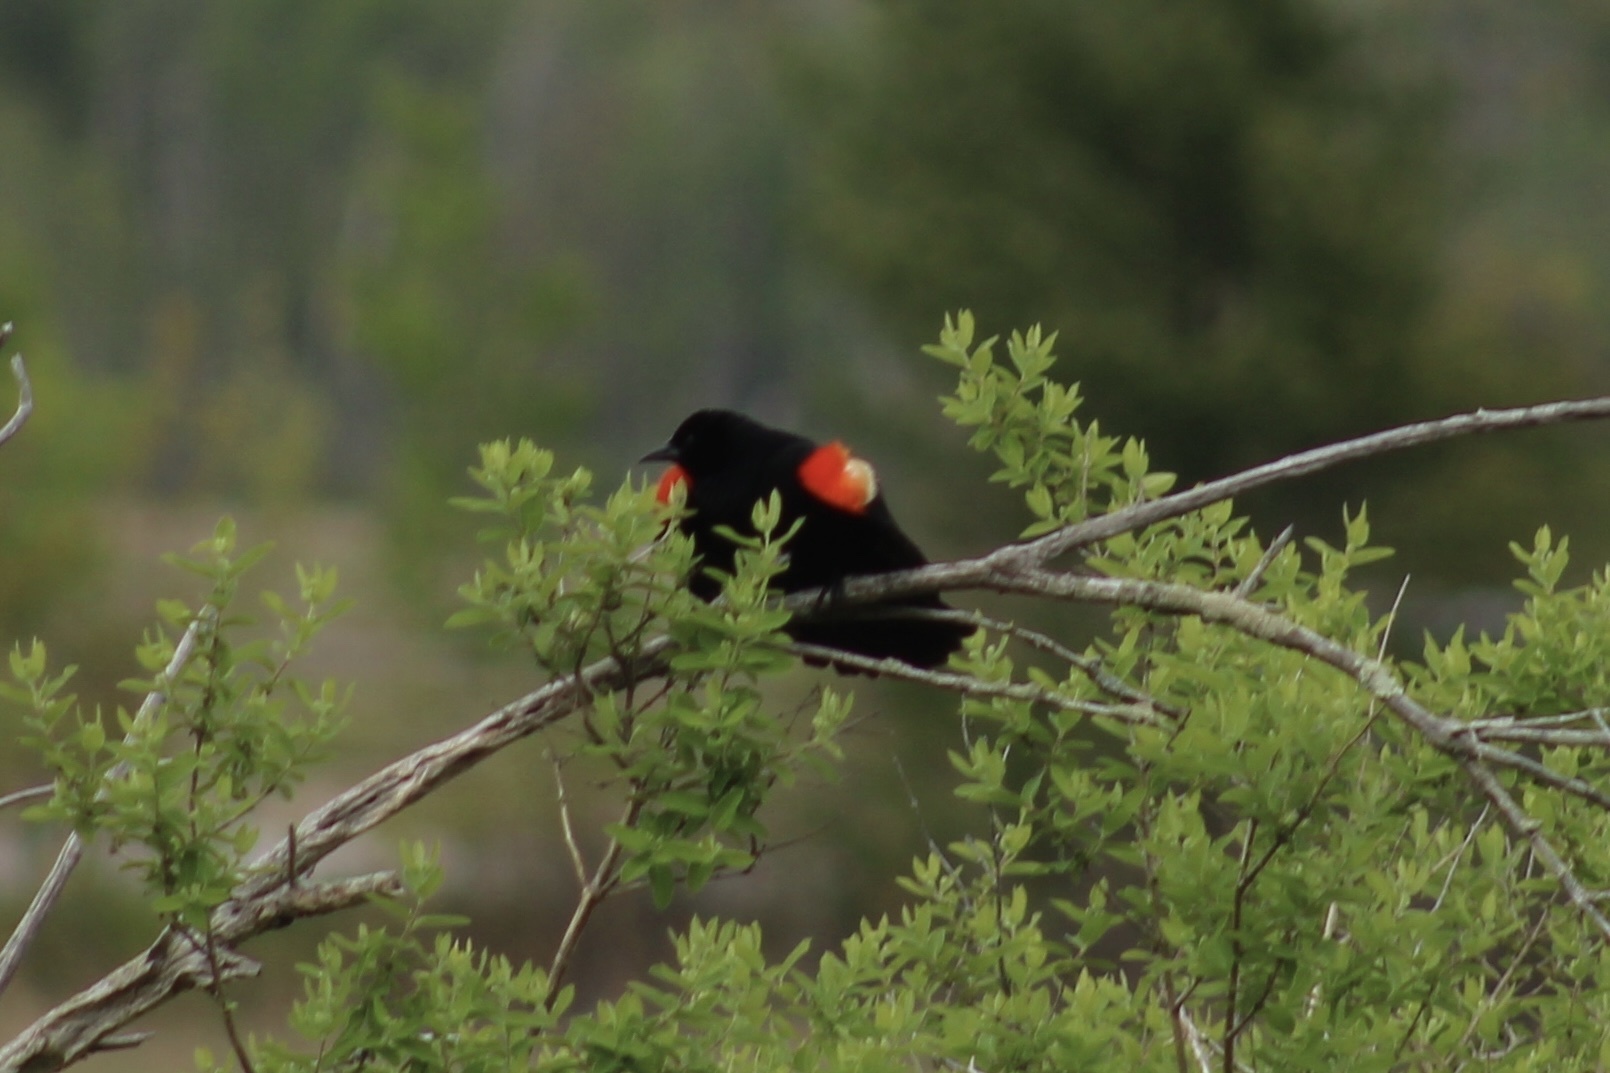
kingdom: Animalia
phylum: Chordata
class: Aves
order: Passeriformes
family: Icteridae
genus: Agelaius
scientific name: Agelaius phoeniceus
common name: Red-winged blackbird
